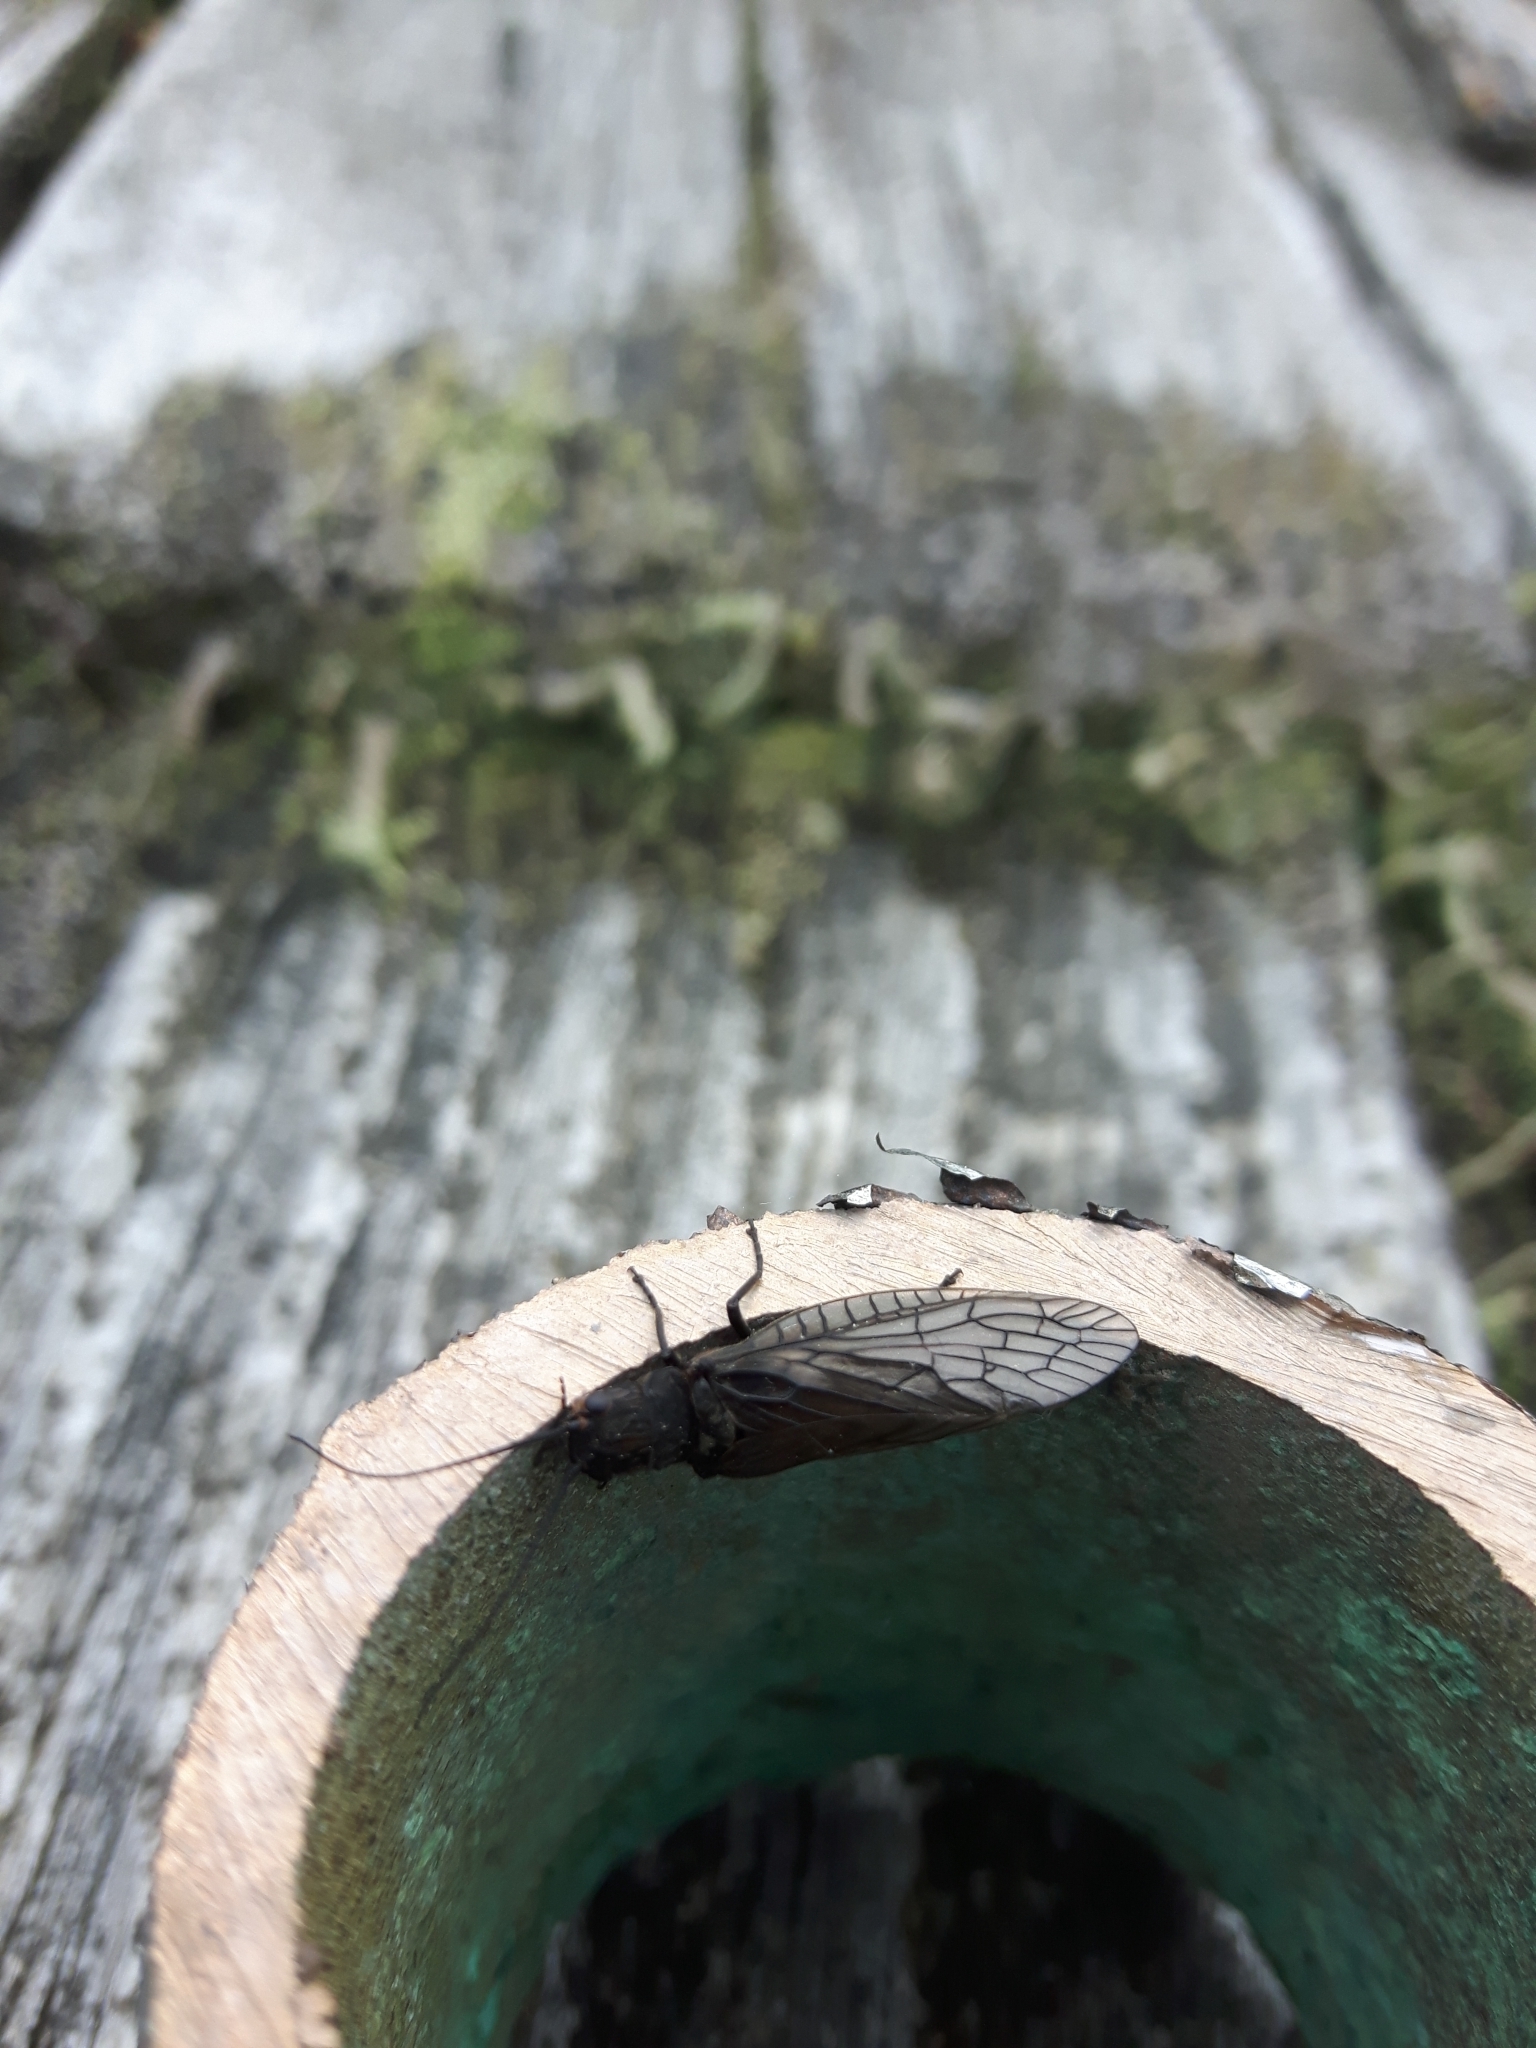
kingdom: Animalia
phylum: Arthropoda
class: Insecta
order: Megaloptera
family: Sialidae
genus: Sialis
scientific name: Sialis
